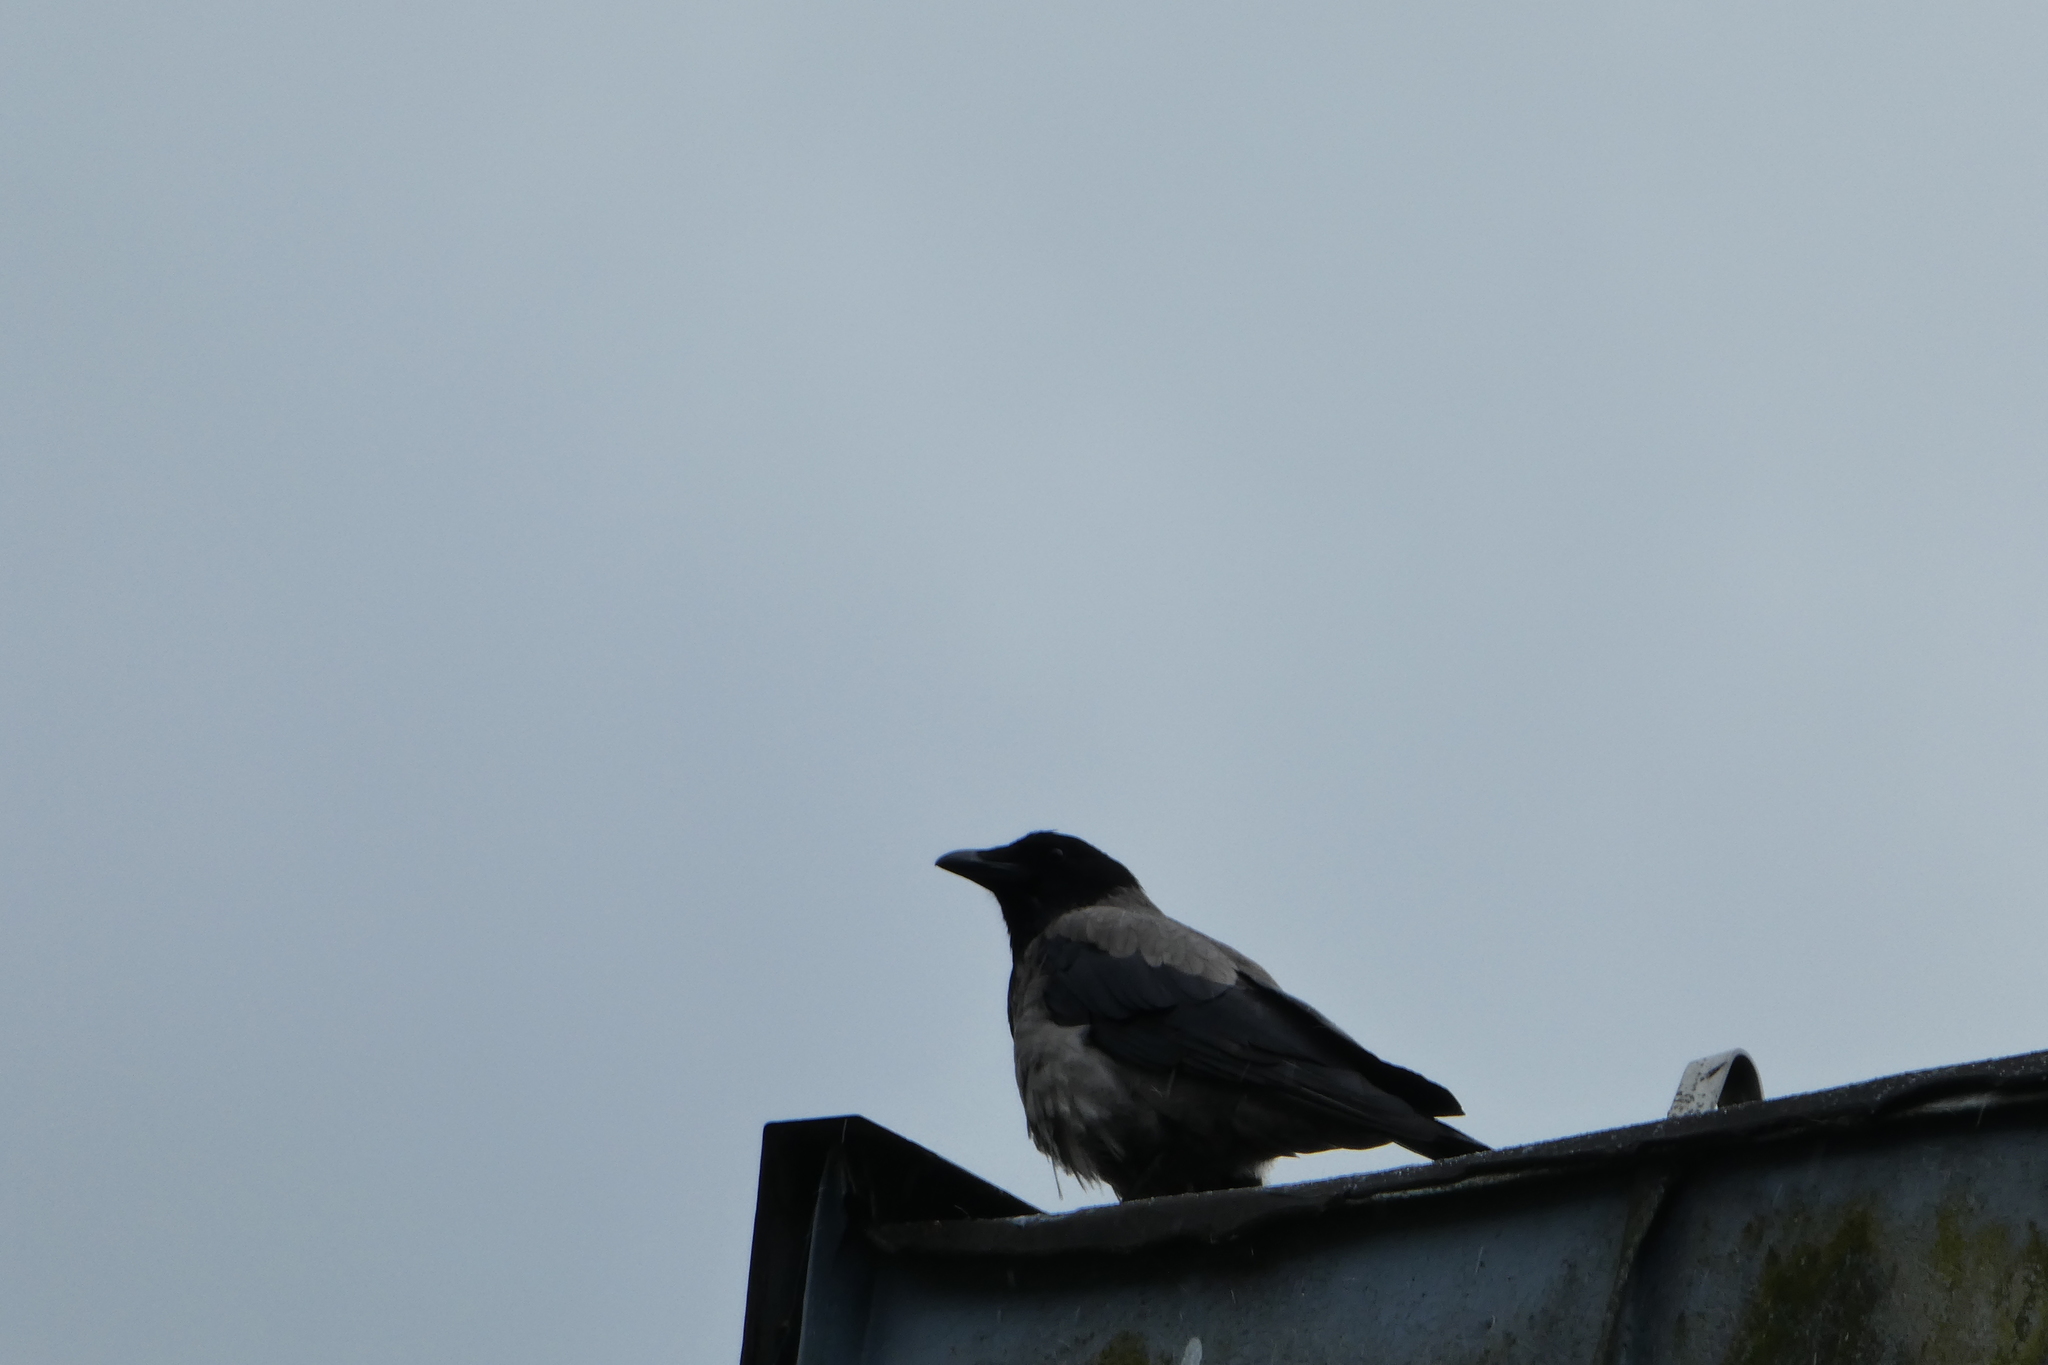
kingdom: Animalia
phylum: Chordata
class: Aves
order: Passeriformes
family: Corvidae
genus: Corvus
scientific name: Corvus cornix
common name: Hooded crow
